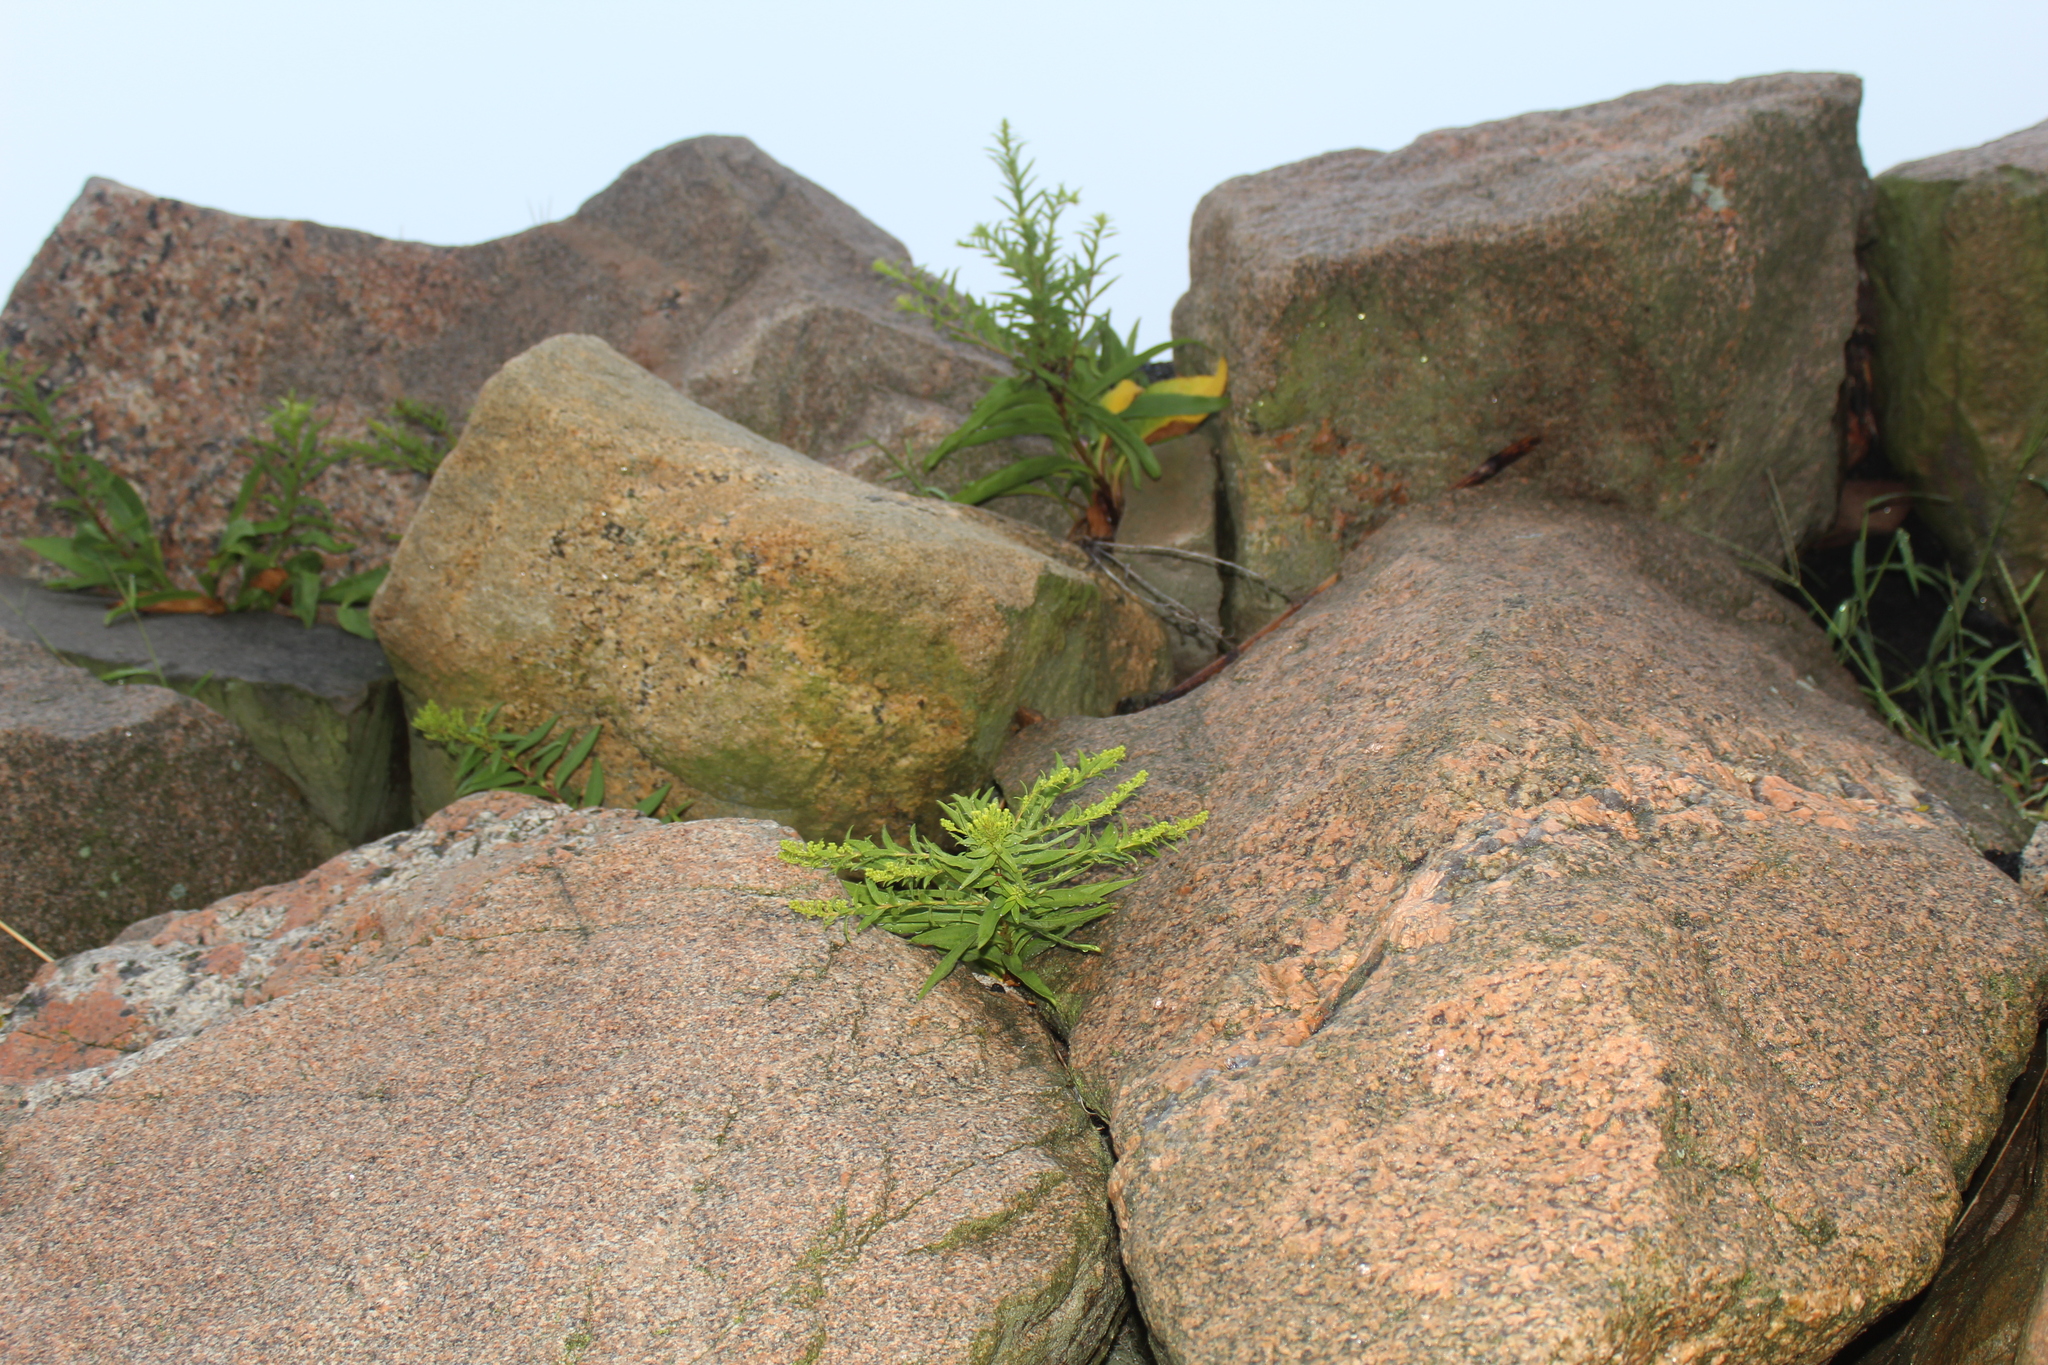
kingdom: Plantae
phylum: Tracheophyta
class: Magnoliopsida
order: Asterales
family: Asteraceae
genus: Solidago
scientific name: Solidago sempervirens
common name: Salt-marsh goldenrod
